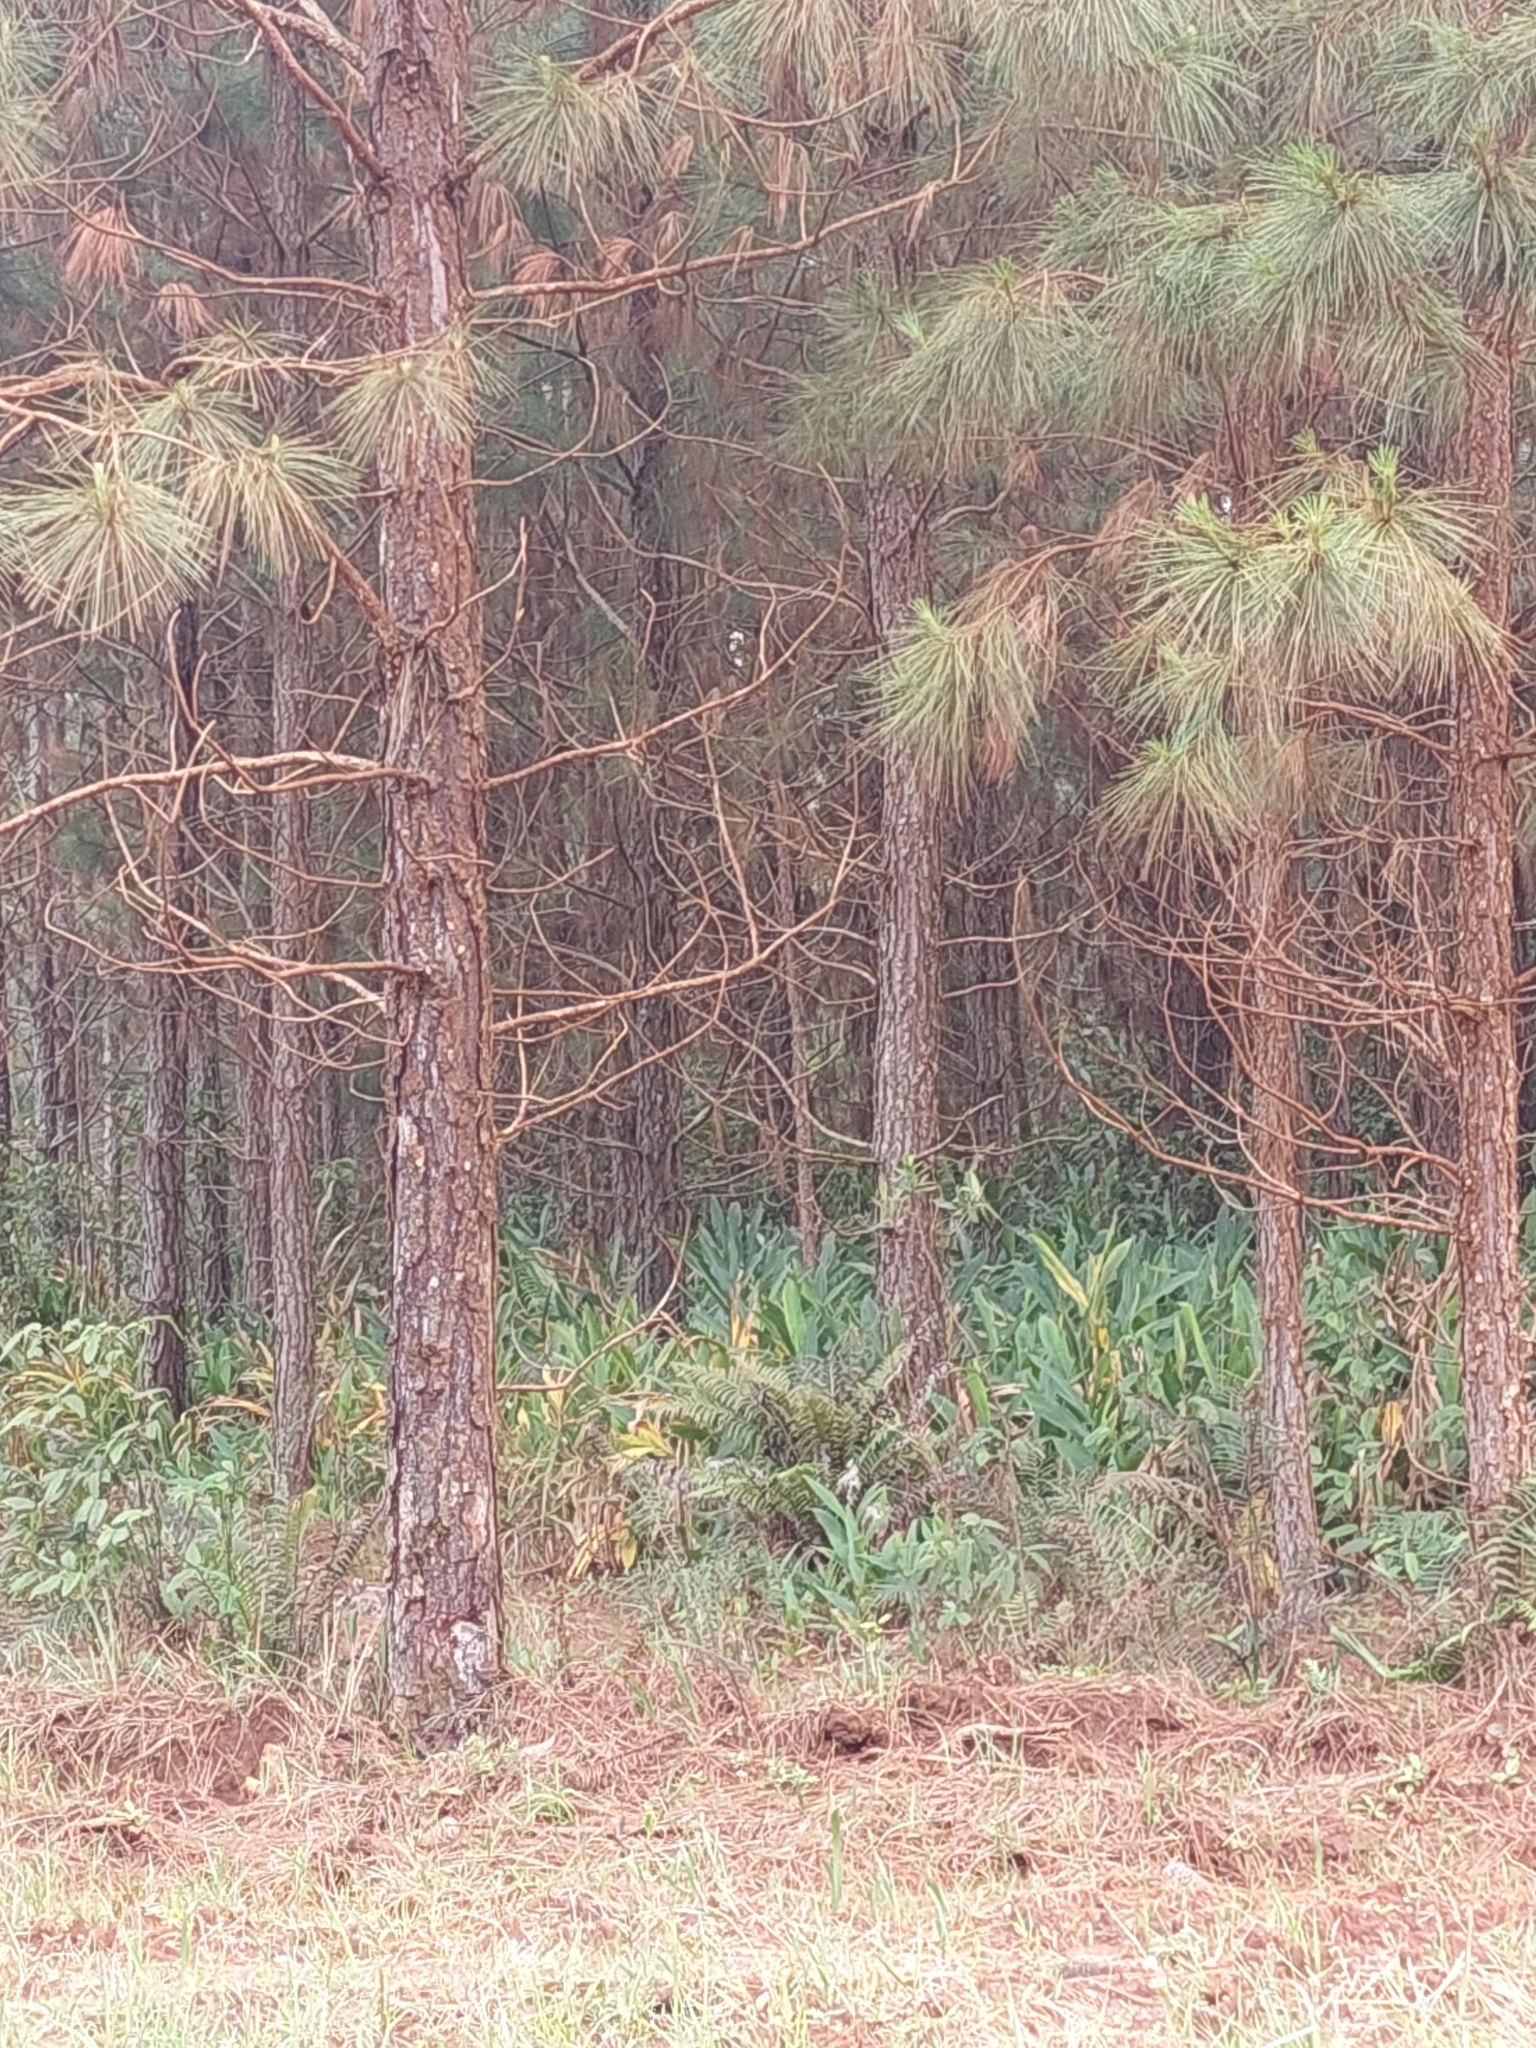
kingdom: Plantae
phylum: Tracheophyta
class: Liliopsida
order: Zingiberales
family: Zingiberaceae
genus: Hedychium
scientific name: Hedychium coronarium
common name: White garland-lily
